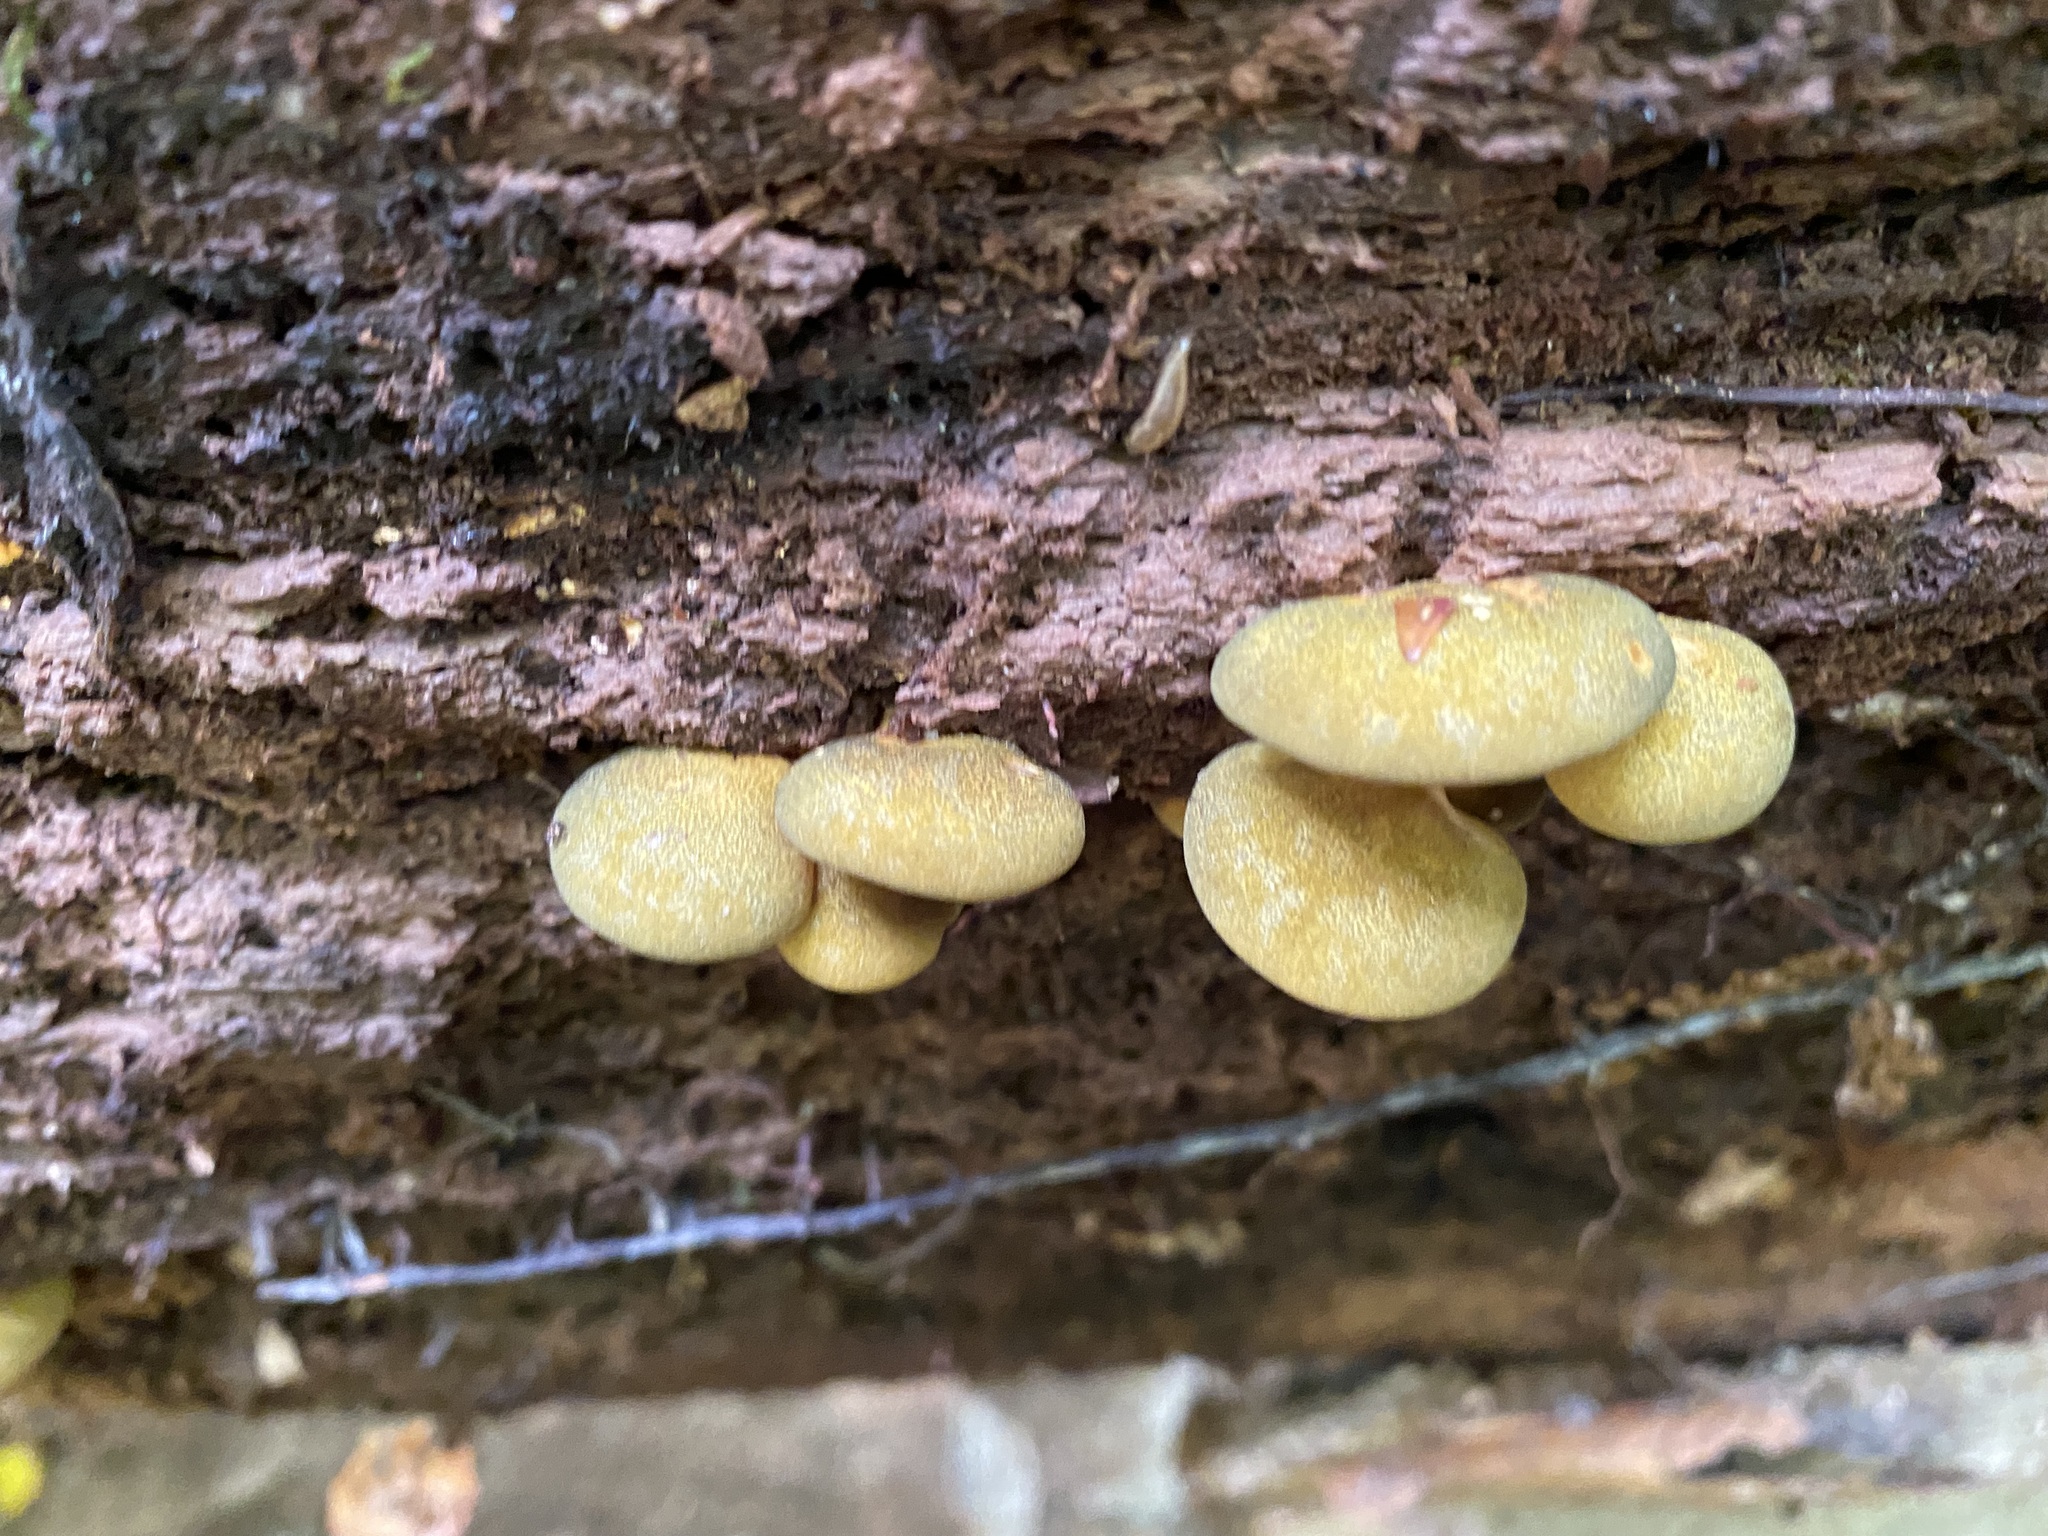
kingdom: Fungi
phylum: Basidiomycota
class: Agaricomycetes
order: Agaricales
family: Sarcomyxaceae
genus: Sarcomyxa
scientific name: Sarcomyxa serotina
